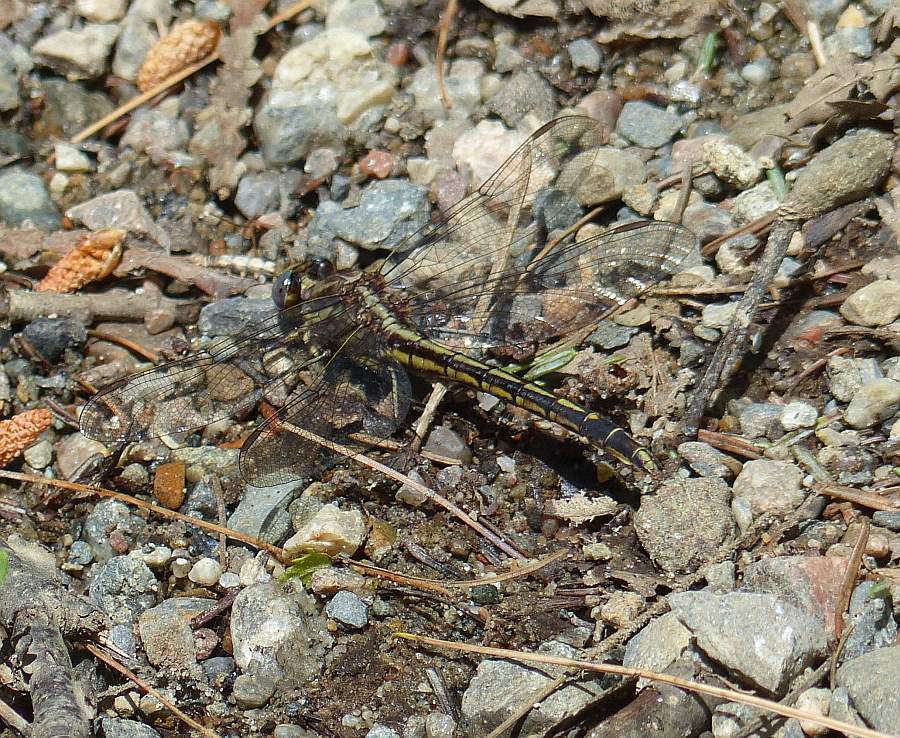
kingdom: Animalia
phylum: Arthropoda
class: Insecta
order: Odonata
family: Gomphidae
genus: Phanogomphus
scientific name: Phanogomphus spicatus
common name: Dusky clubtail
